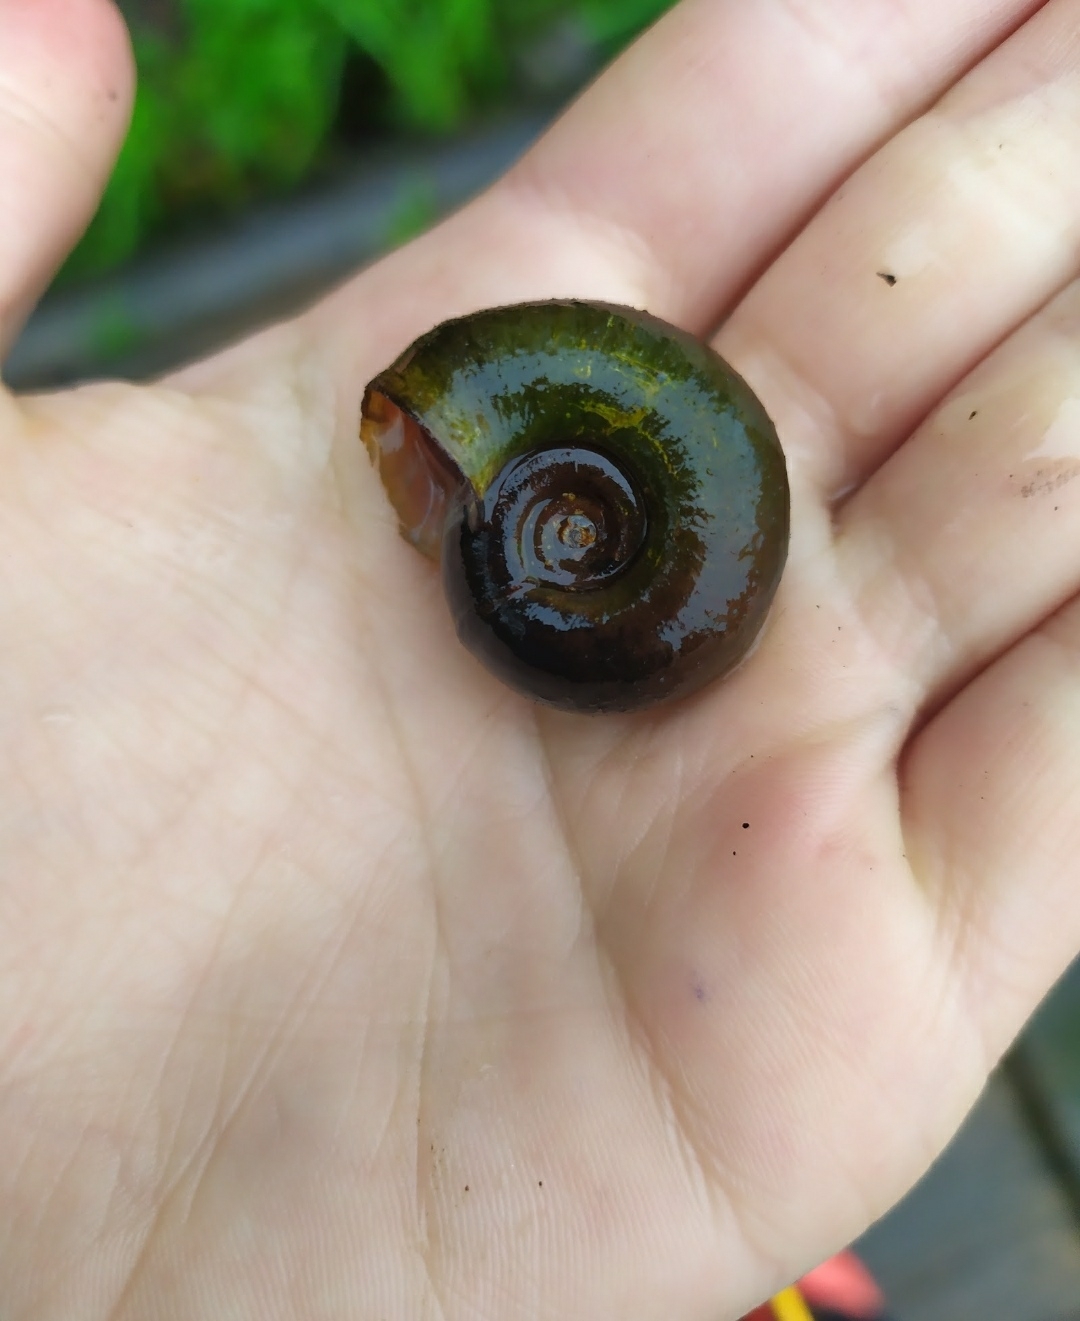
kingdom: Animalia
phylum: Mollusca
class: Gastropoda
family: Planorbidae
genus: Planorbarius
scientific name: Planorbarius corneus
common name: Great ramshorn
